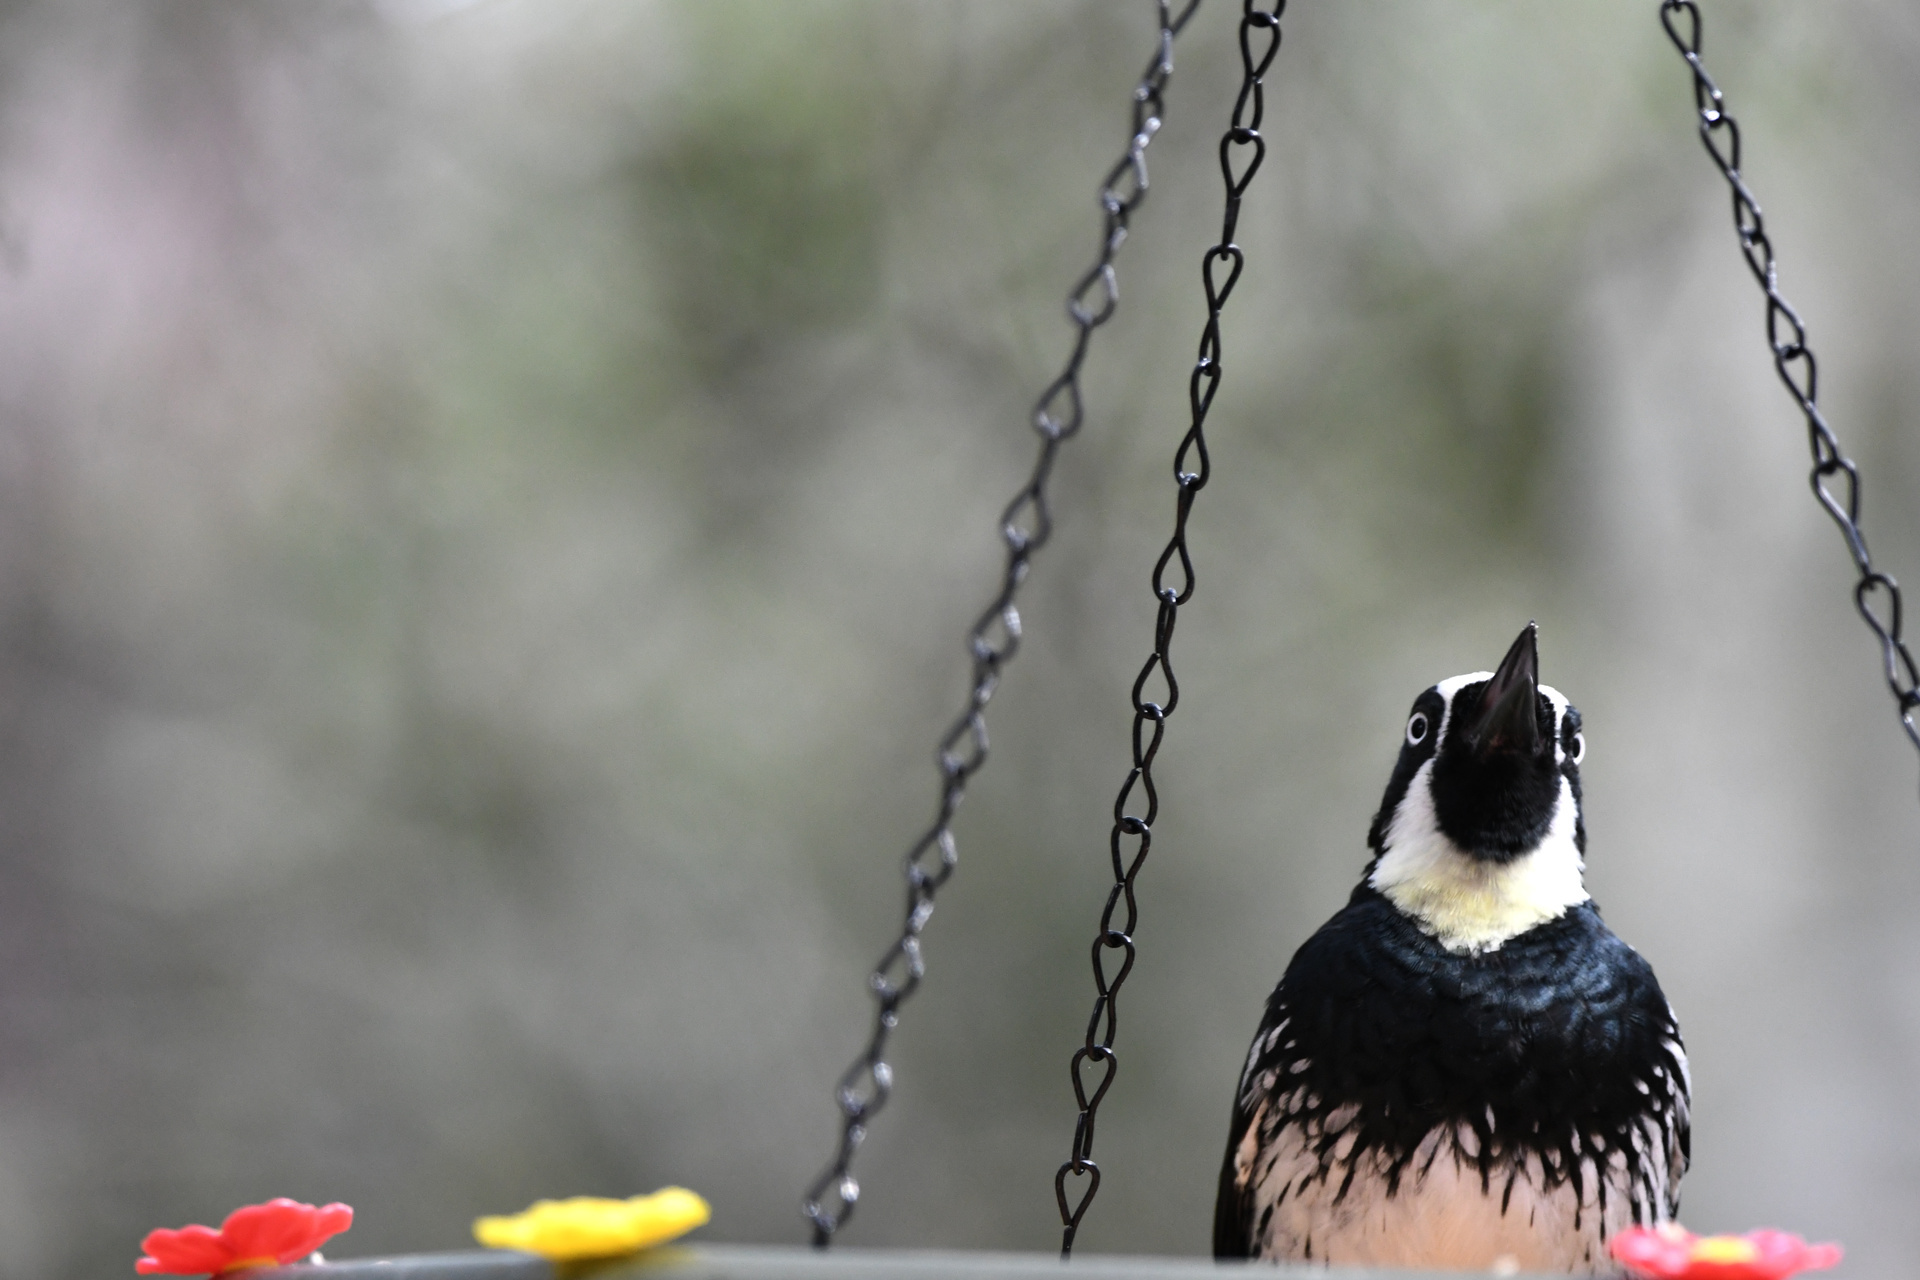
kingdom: Animalia
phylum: Chordata
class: Aves
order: Piciformes
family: Picidae
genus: Melanerpes
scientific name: Melanerpes formicivorus
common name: Acorn woodpecker
